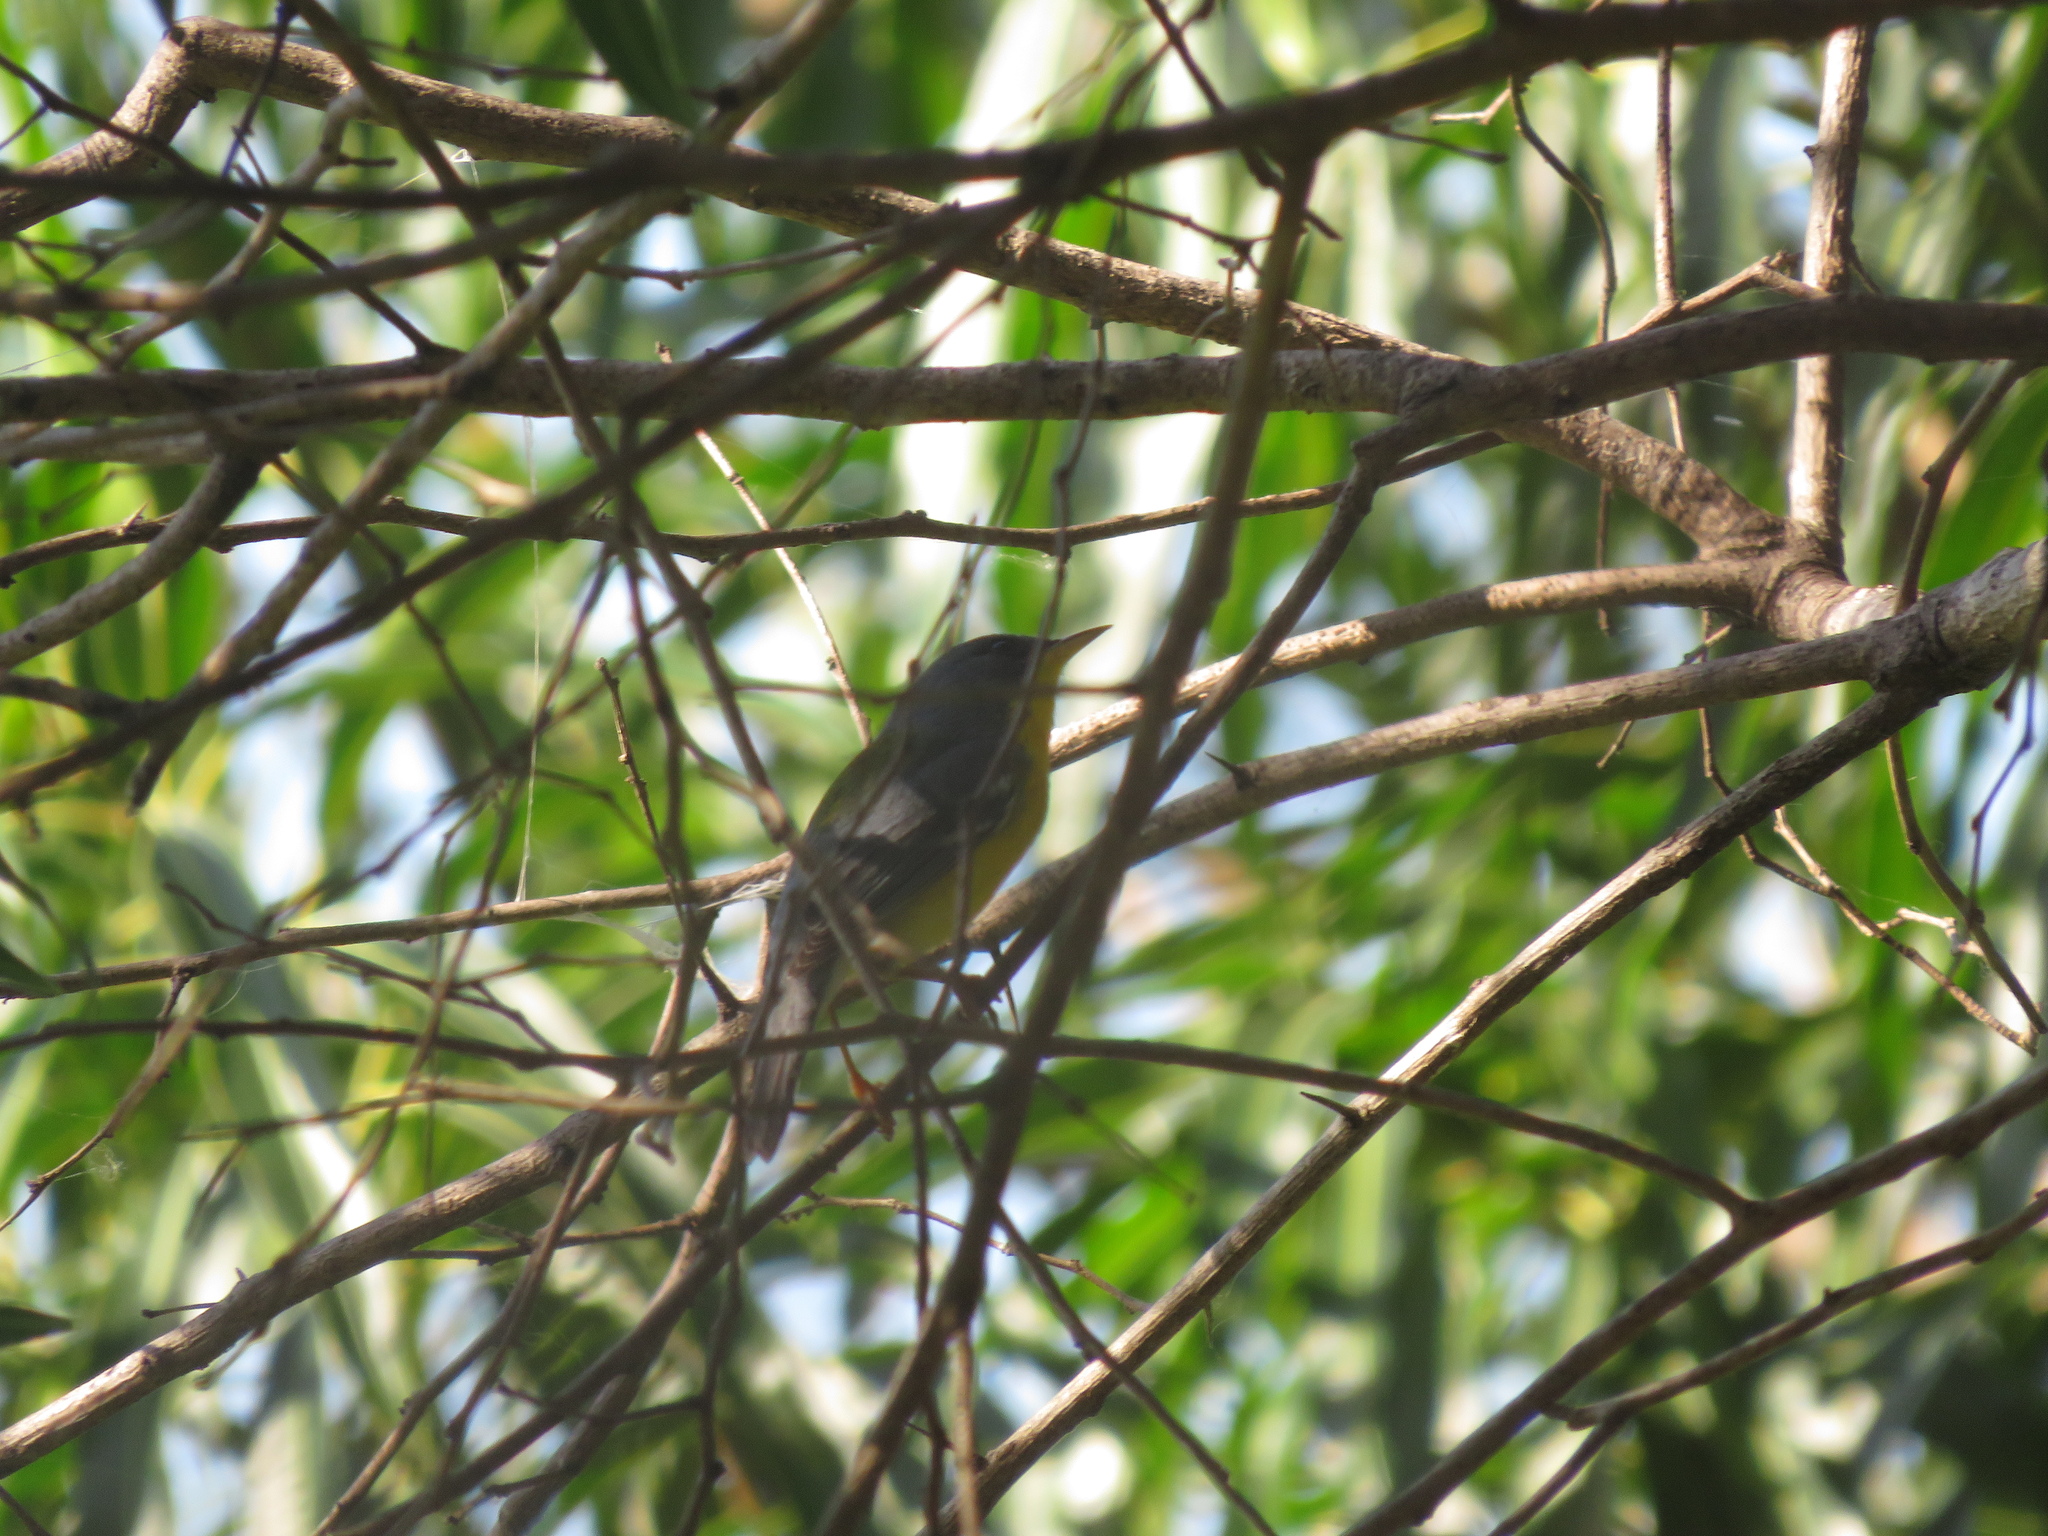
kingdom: Animalia
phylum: Chordata
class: Aves
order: Passeriformes
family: Parulidae
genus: Setophaga
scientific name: Setophaga pitiayumi
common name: Tropical parula
